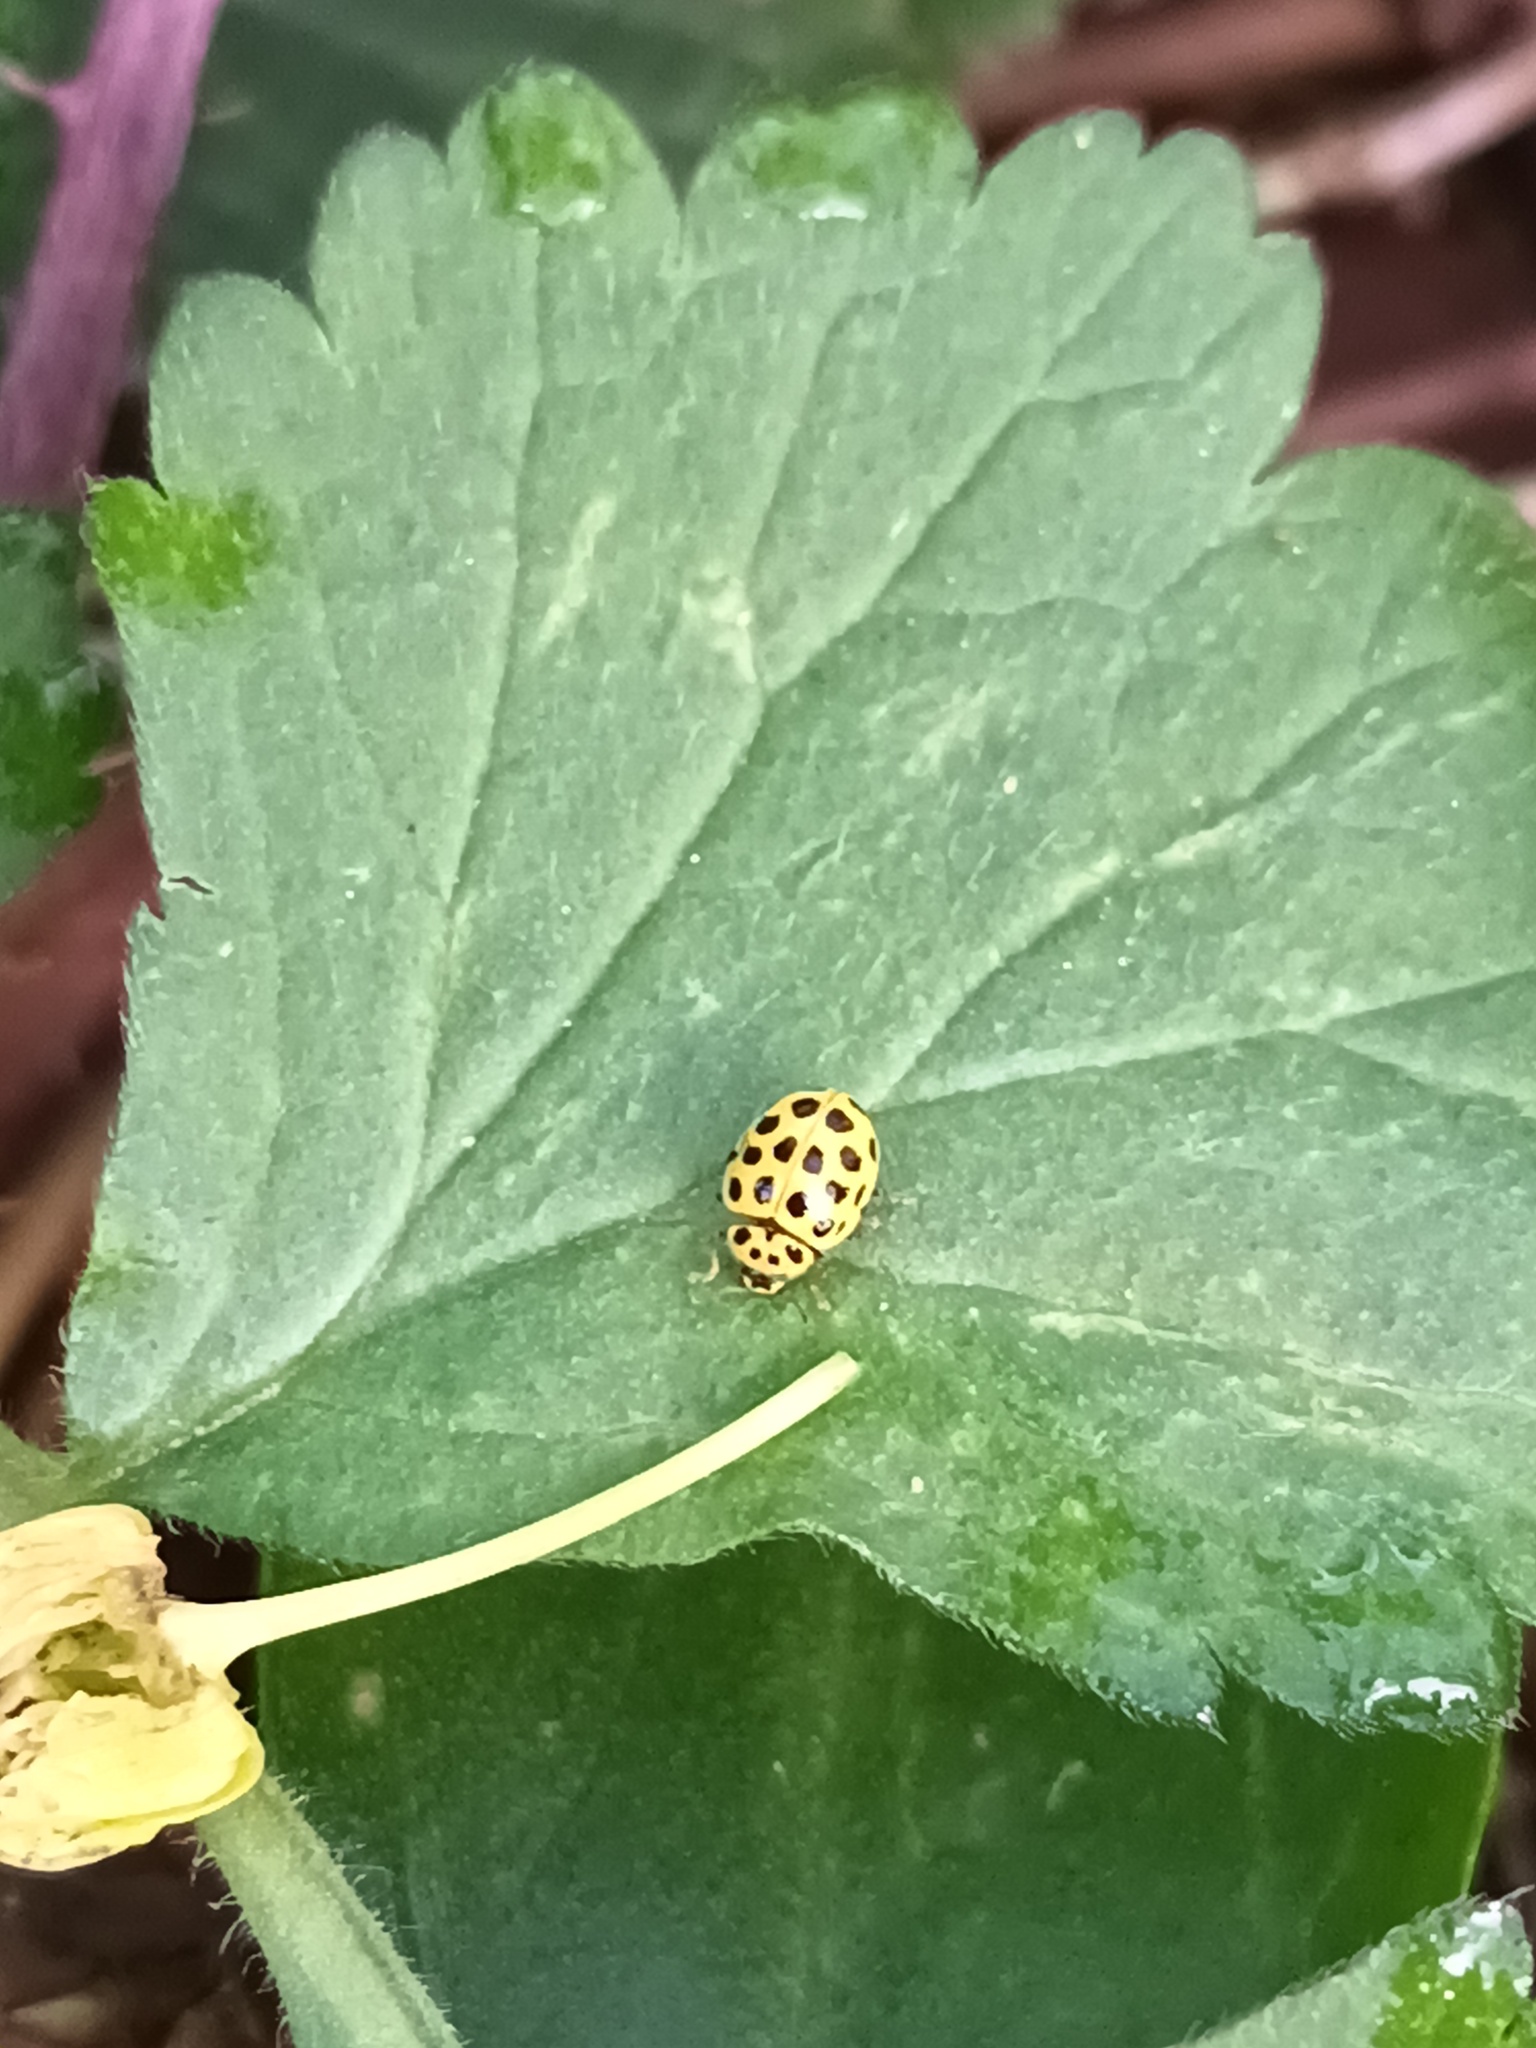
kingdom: Animalia
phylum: Arthropoda
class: Insecta
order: Coleoptera
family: Coccinellidae
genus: Psyllobora
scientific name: Psyllobora vigintiduopunctata
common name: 22-spot ladybird
